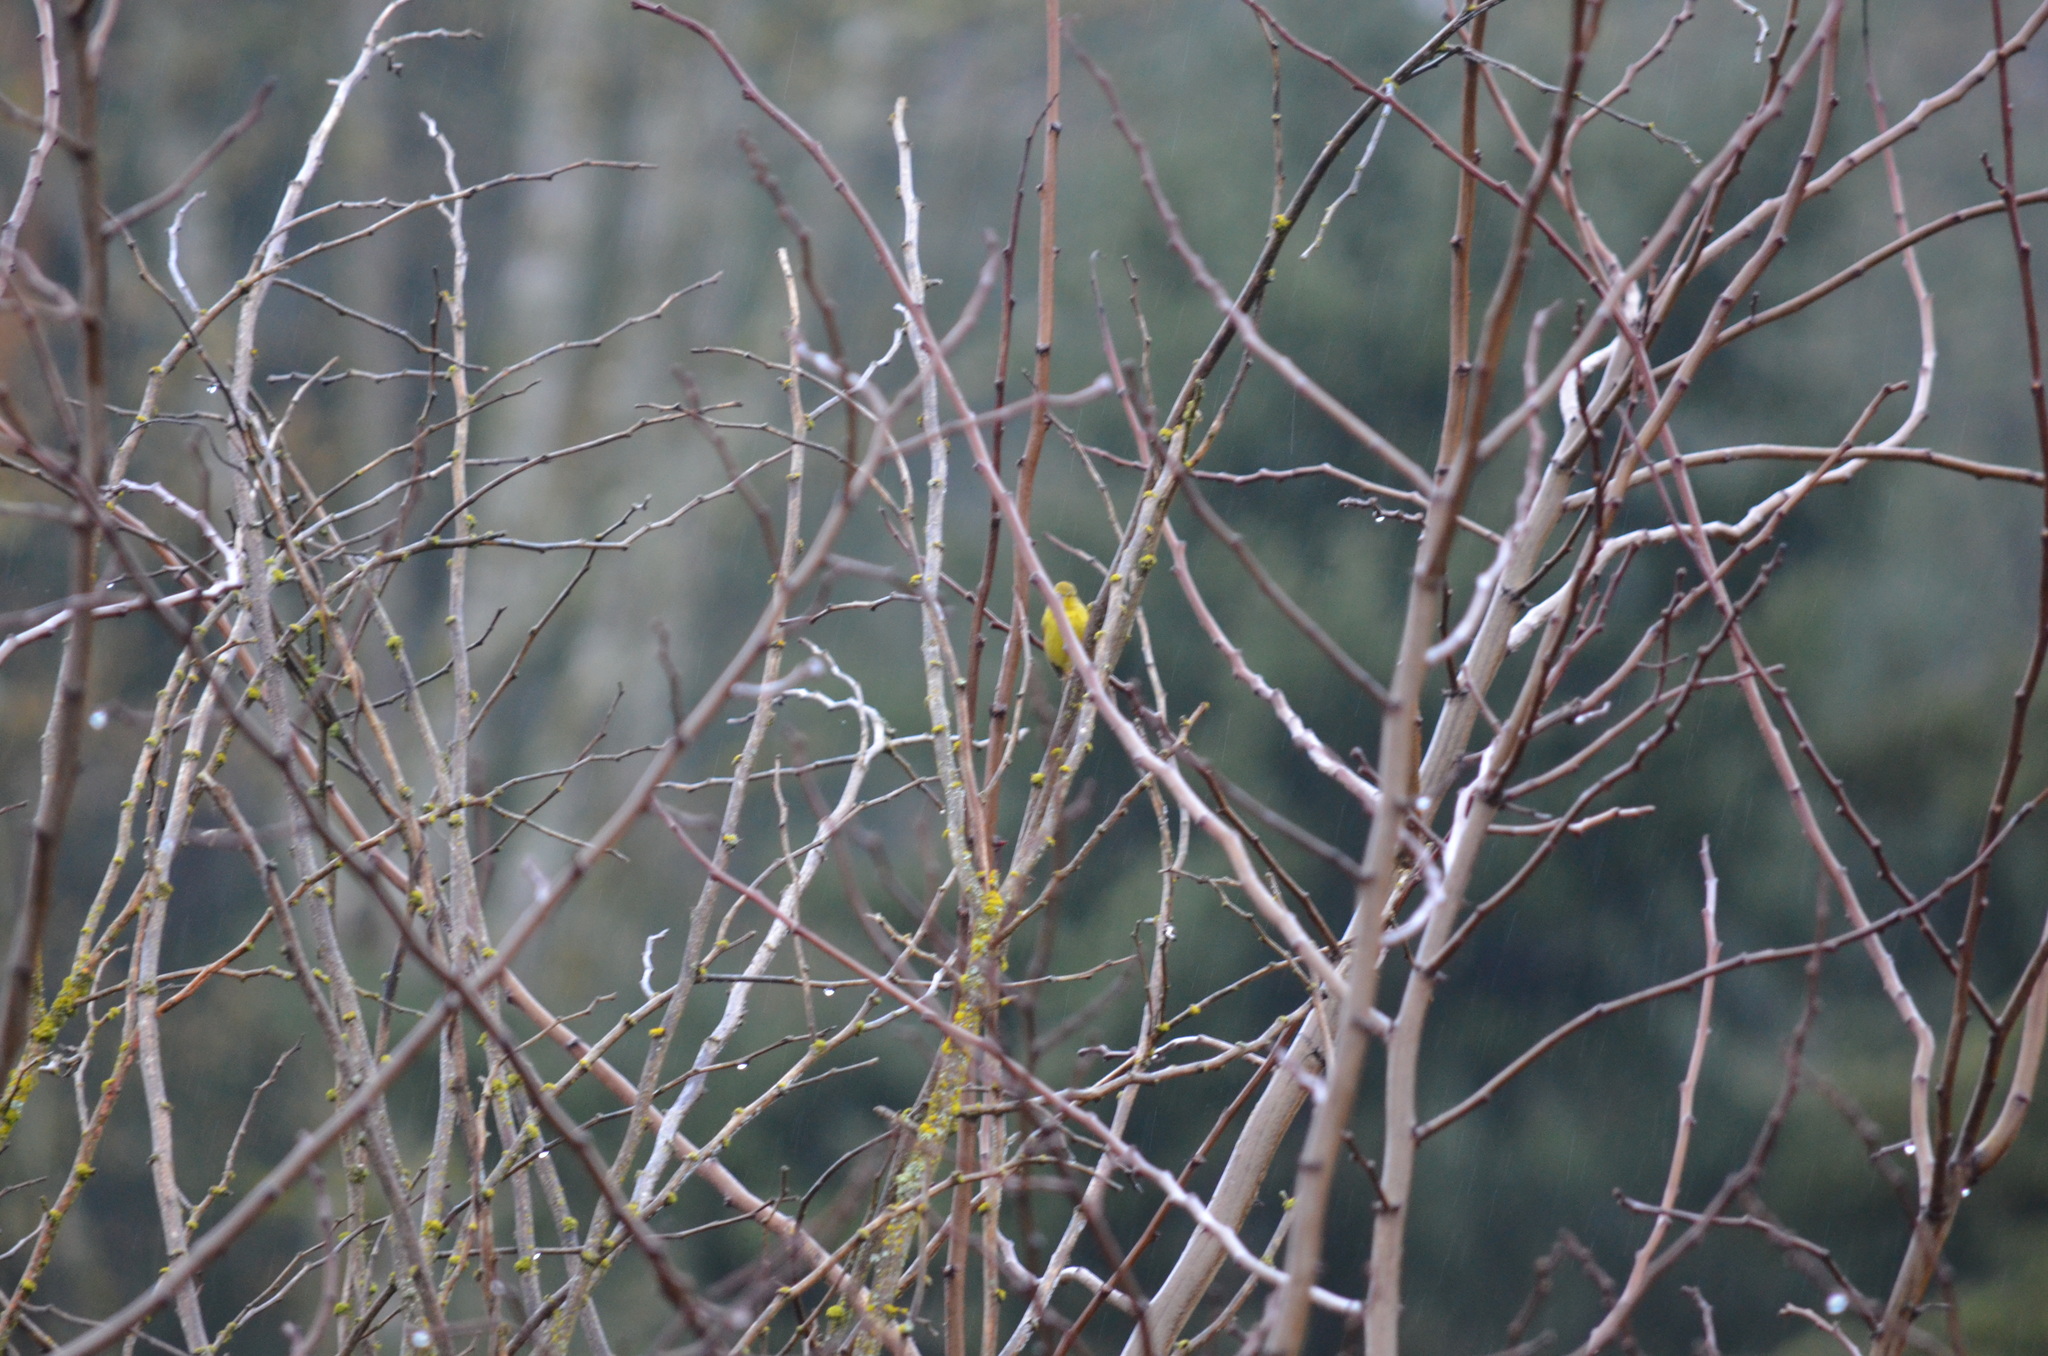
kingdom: Animalia
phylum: Chordata
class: Aves
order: Passeriformes
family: Parulidae
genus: Leiothlypis
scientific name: Leiothlypis celata
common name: Orange-crowned warbler
